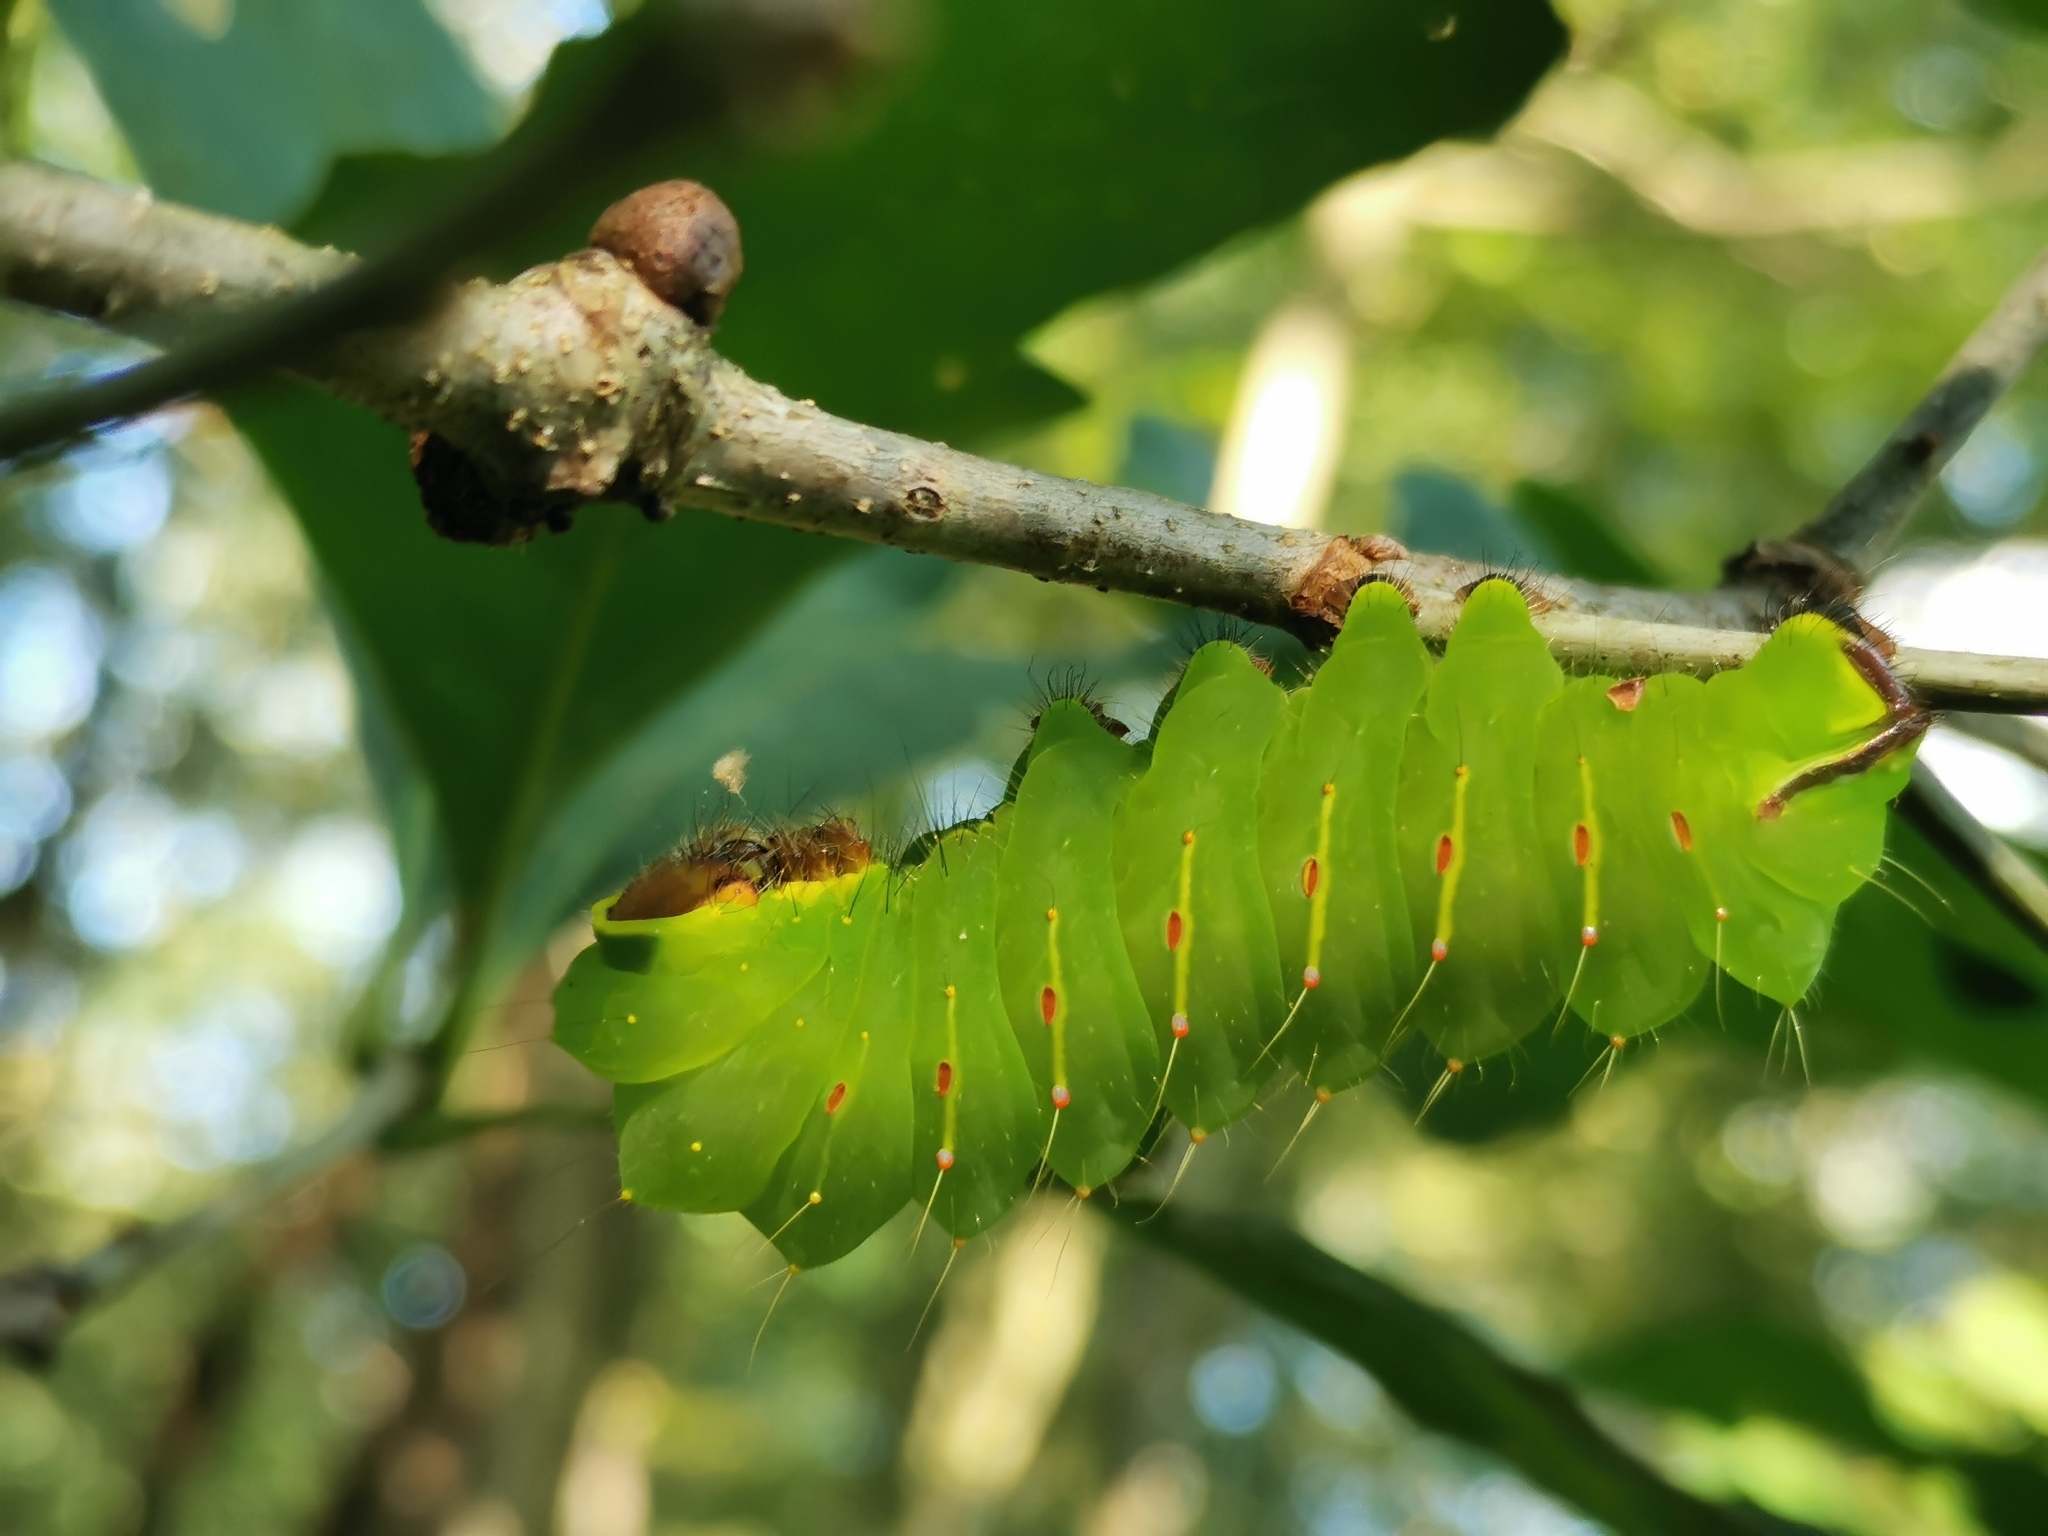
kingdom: Animalia
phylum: Arthropoda
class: Insecta
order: Lepidoptera
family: Saturniidae
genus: Antheraea
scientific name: Antheraea polyphemus
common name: Polyphemus moth
